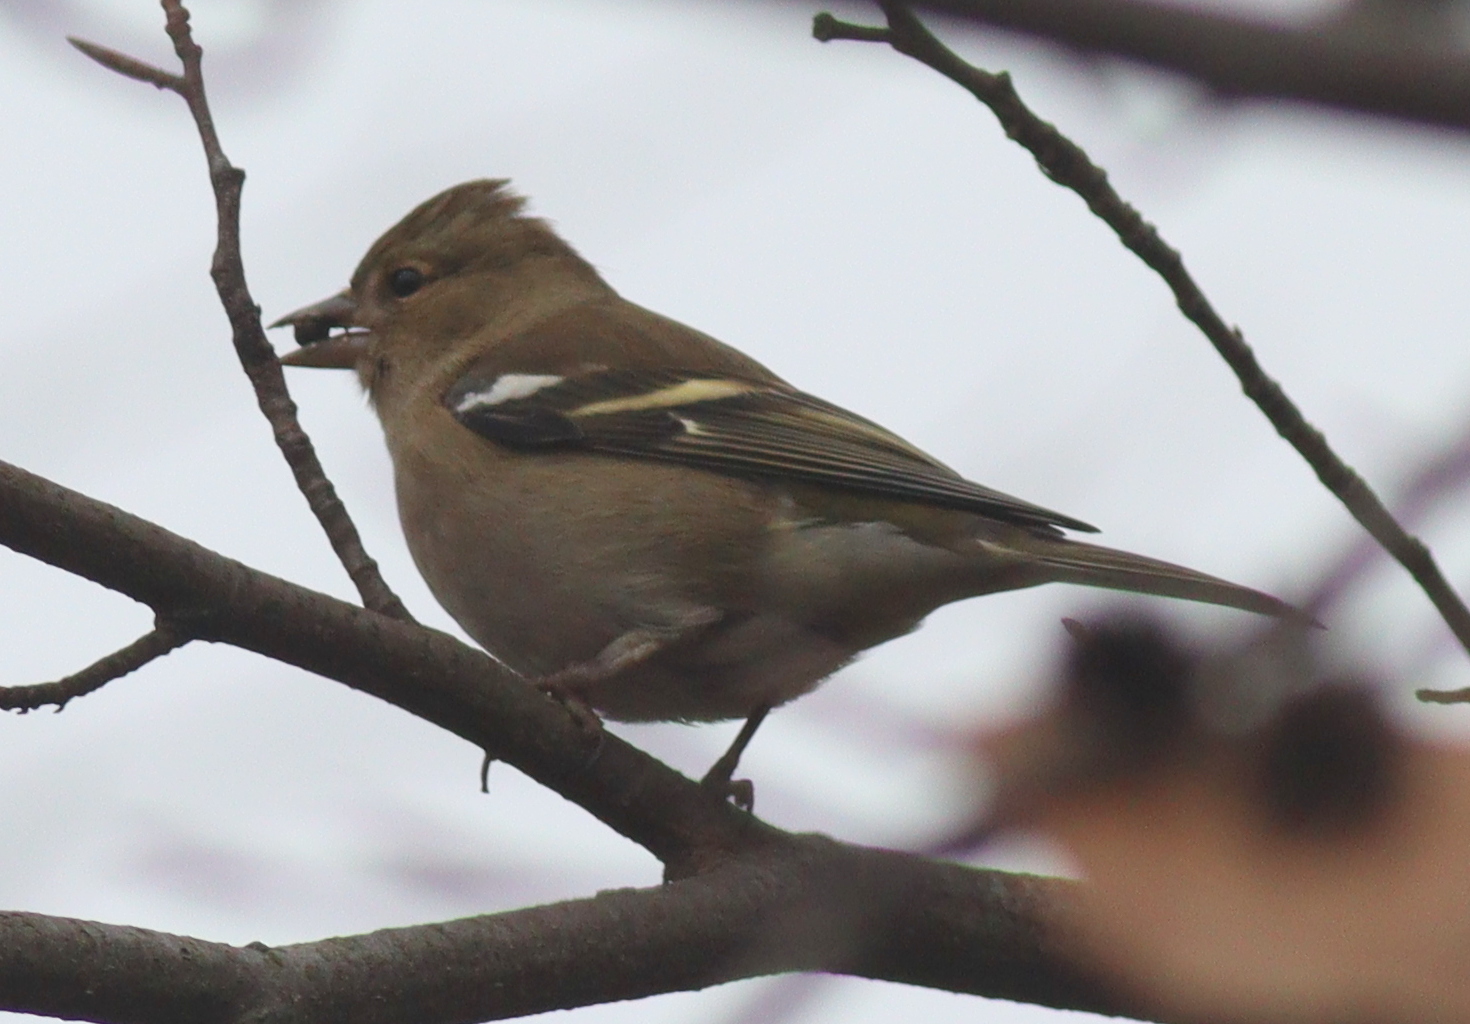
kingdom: Animalia
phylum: Chordata
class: Aves
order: Passeriformes
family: Fringillidae
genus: Fringilla
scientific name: Fringilla coelebs
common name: Common chaffinch
